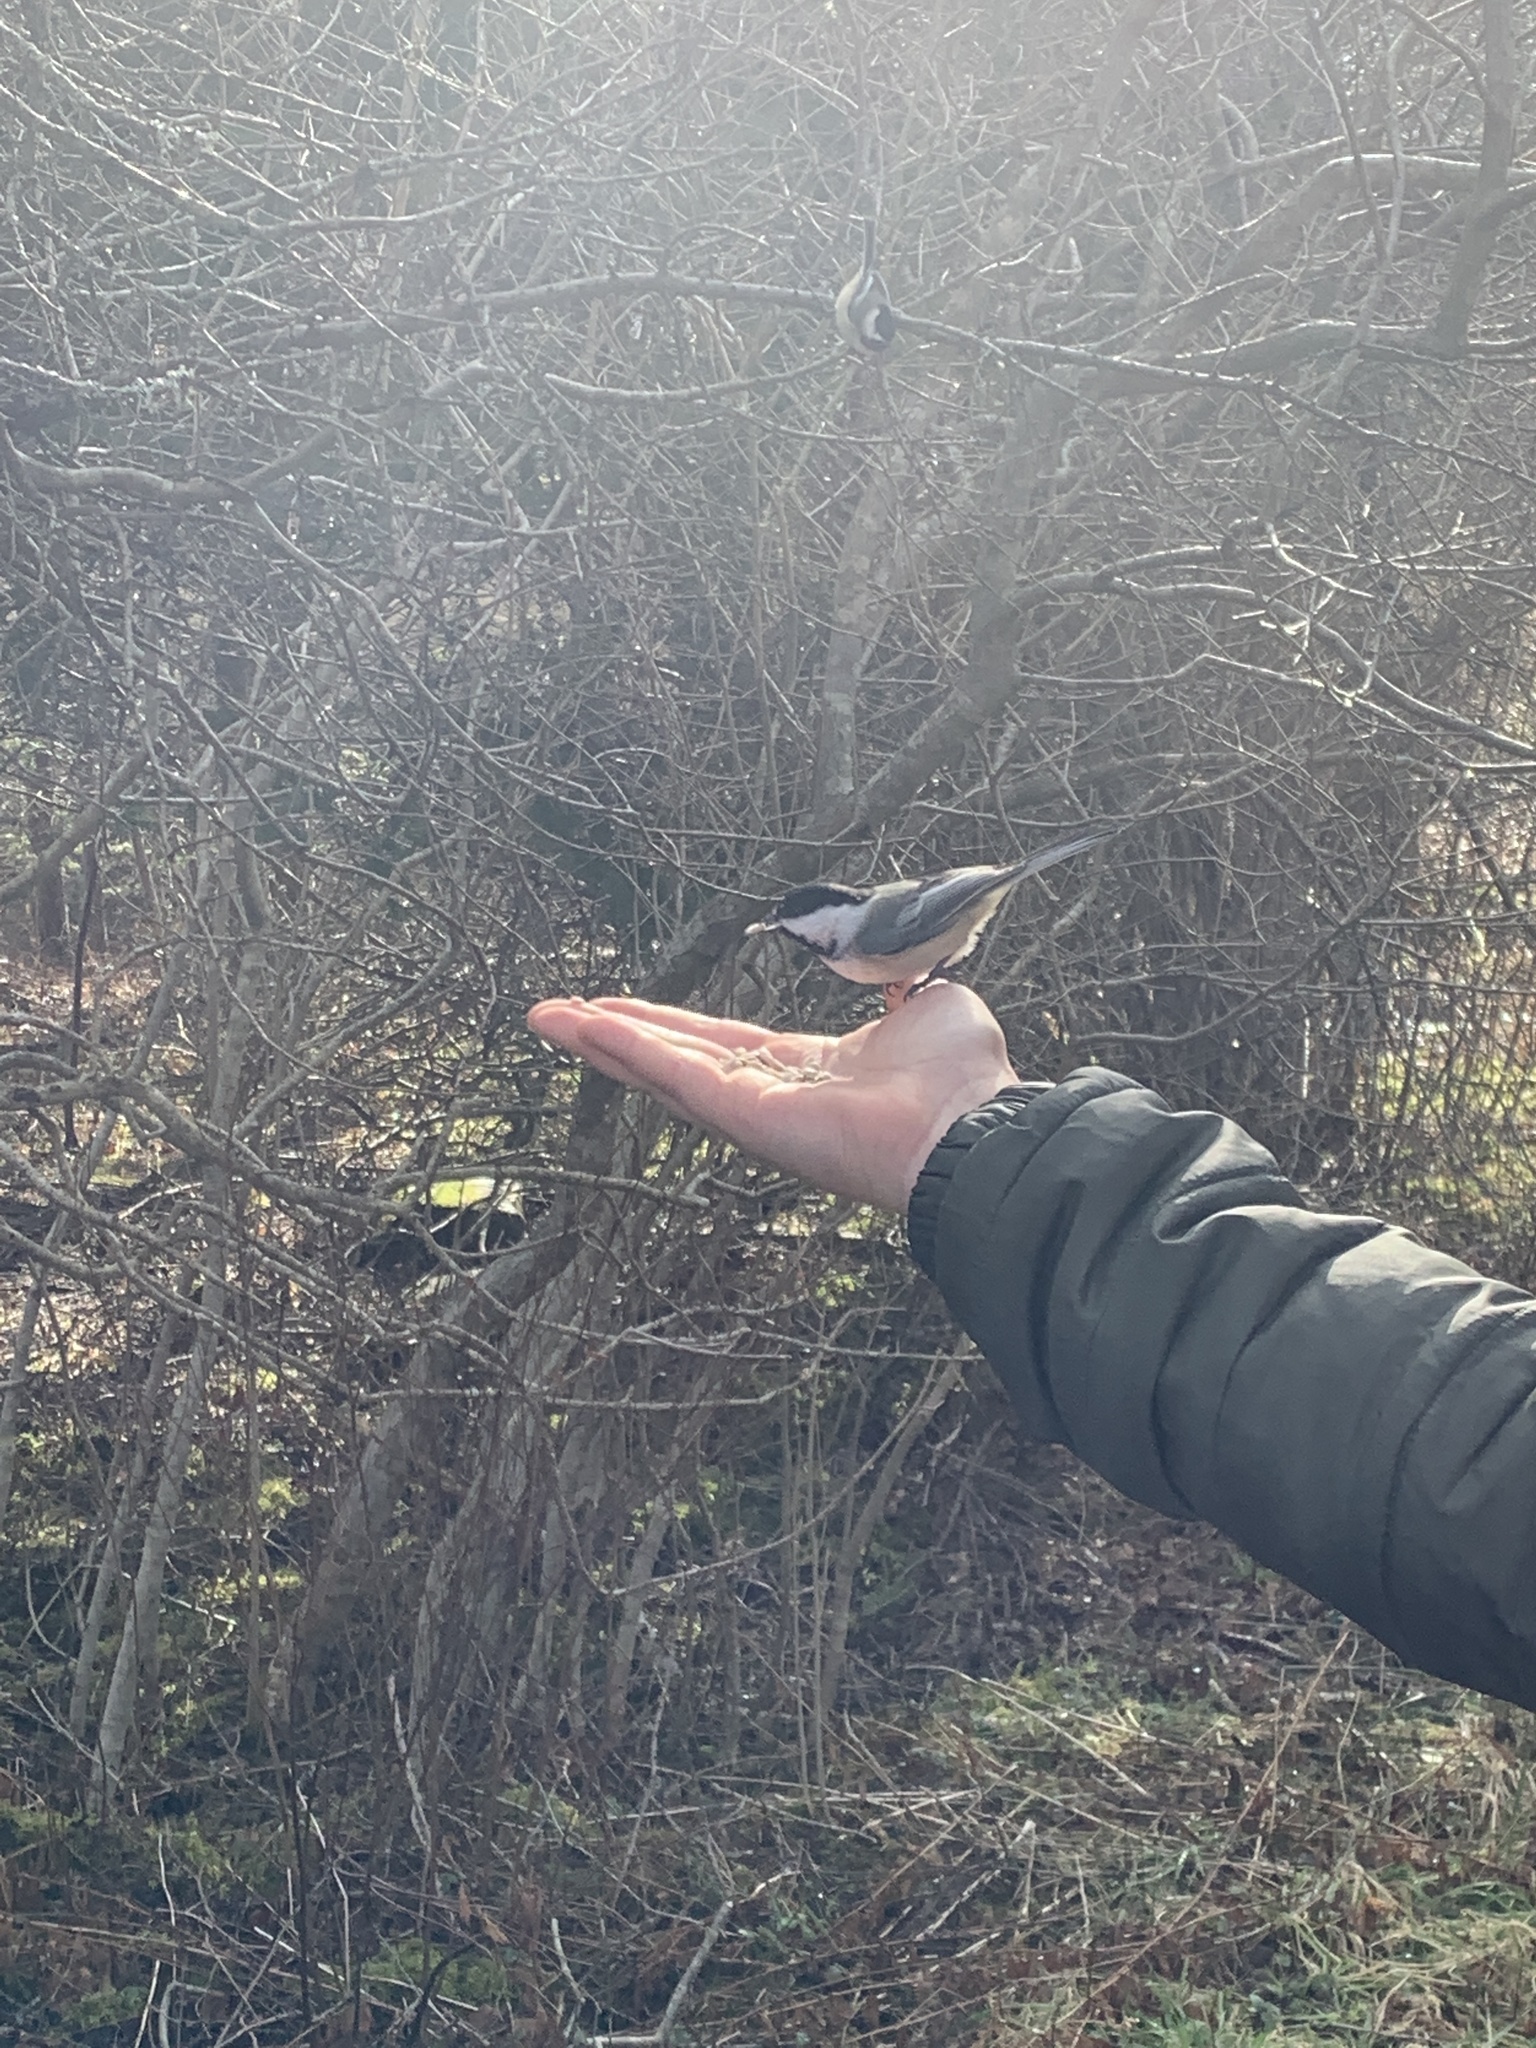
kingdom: Animalia
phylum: Chordata
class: Aves
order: Passeriformes
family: Paridae
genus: Poecile
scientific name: Poecile atricapillus
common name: Black-capped chickadee
